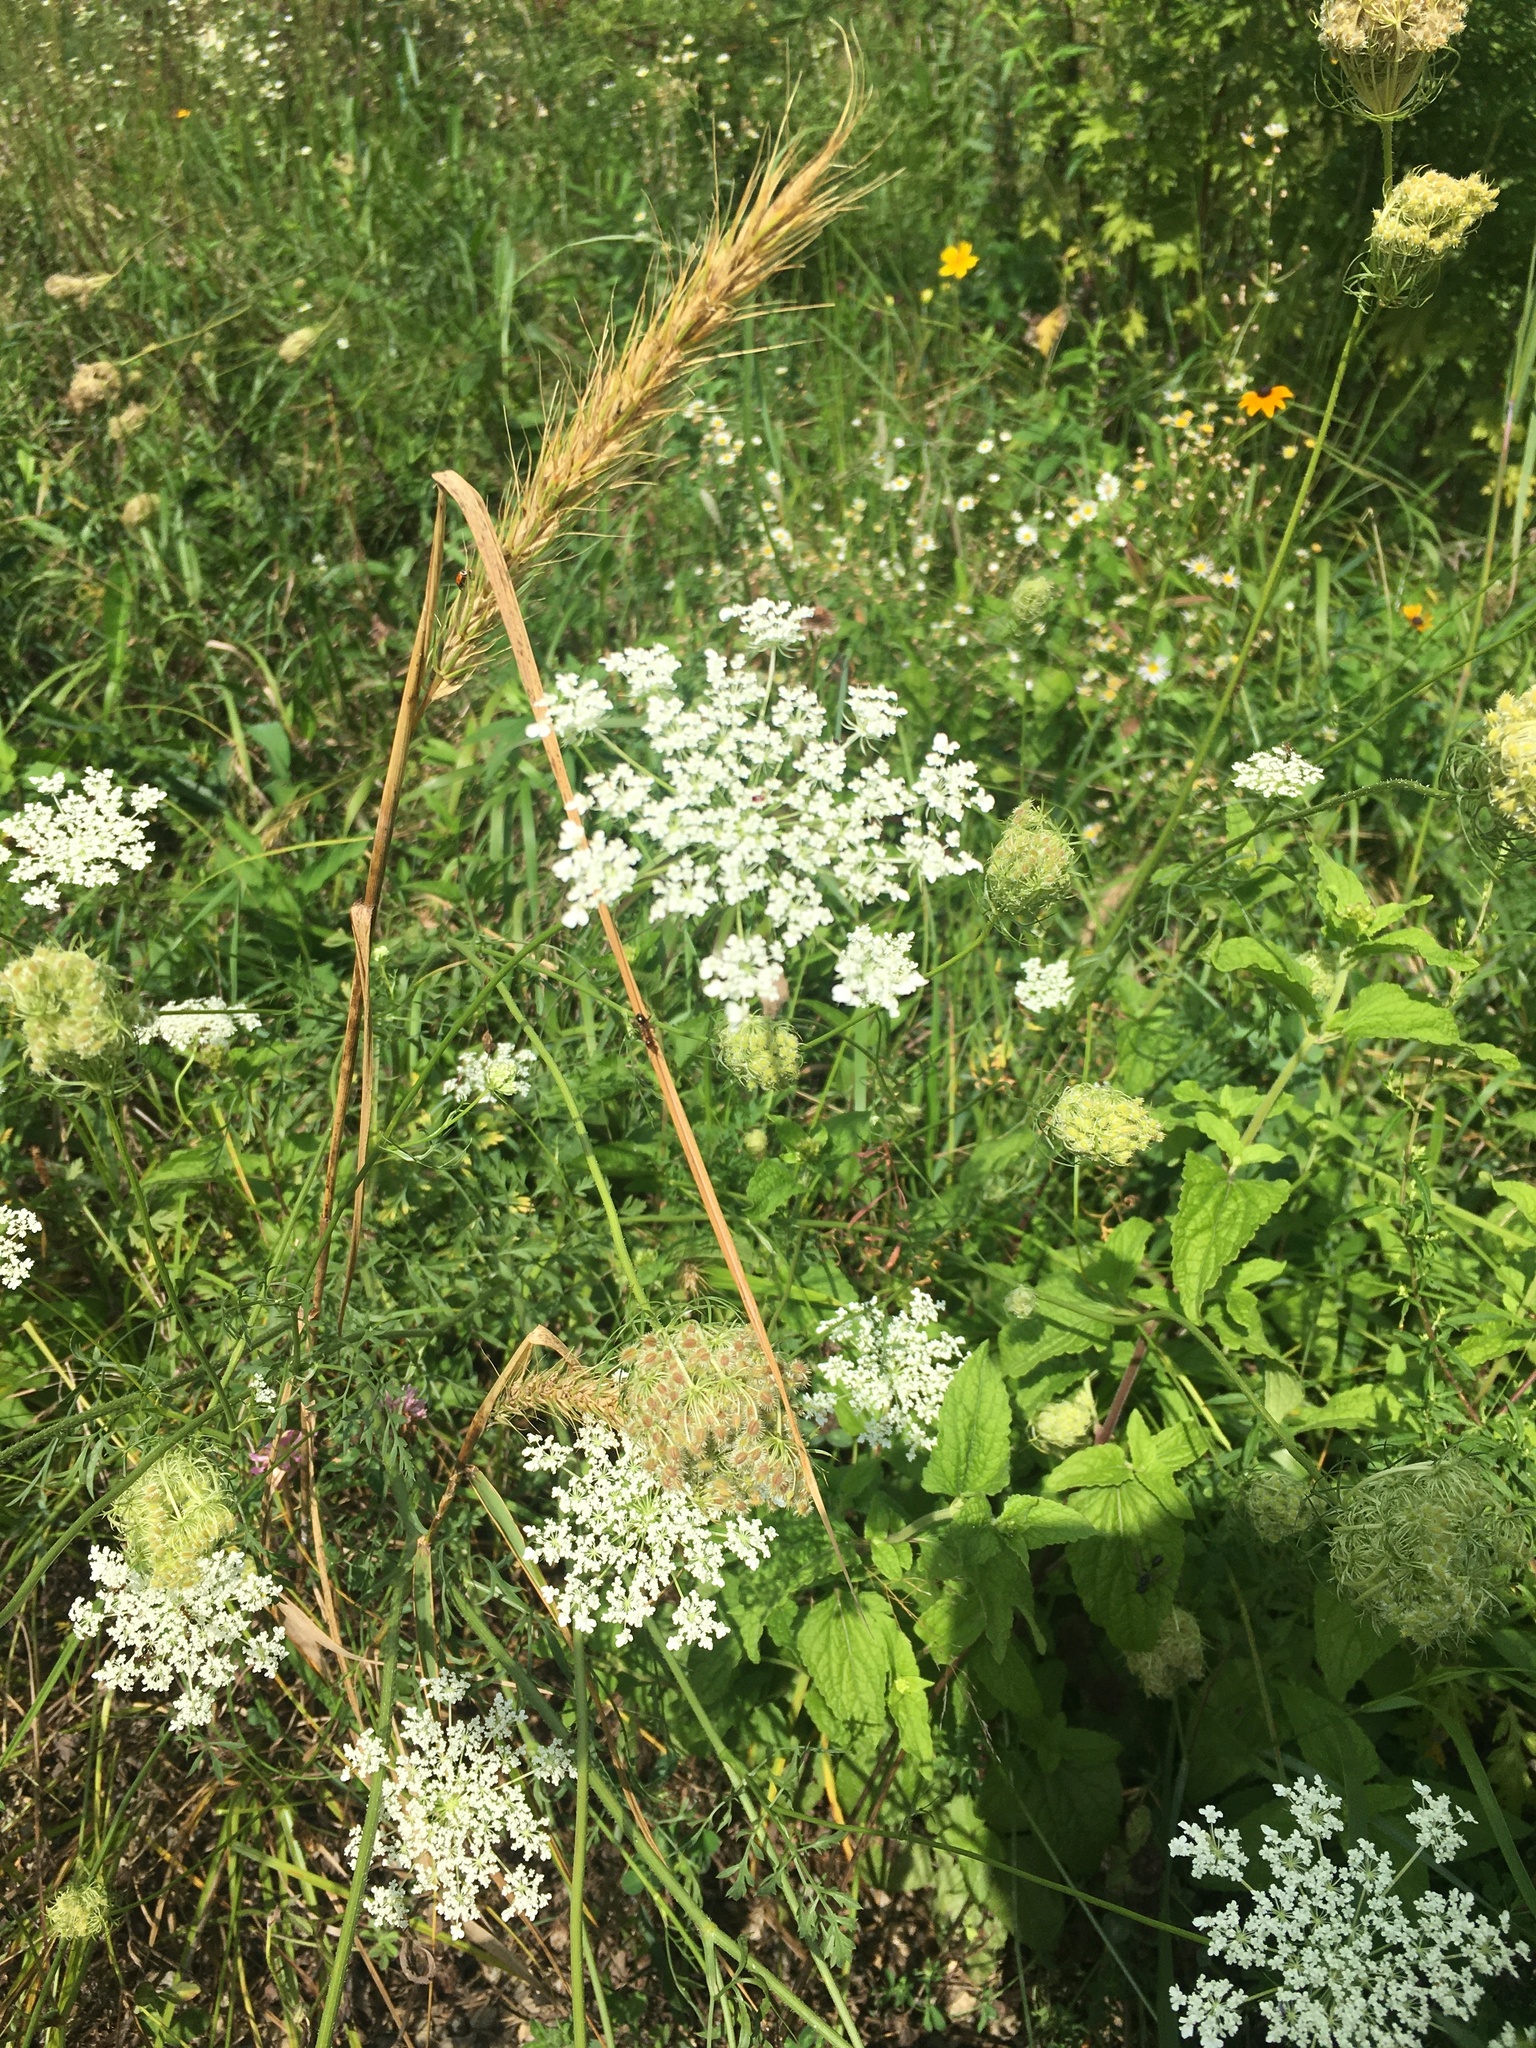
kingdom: Plantae
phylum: Tracheophyta
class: Magnoliopsida
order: Apiales
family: Apiaceae
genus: Daucus
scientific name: Daucus carota
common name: Wild carrot
